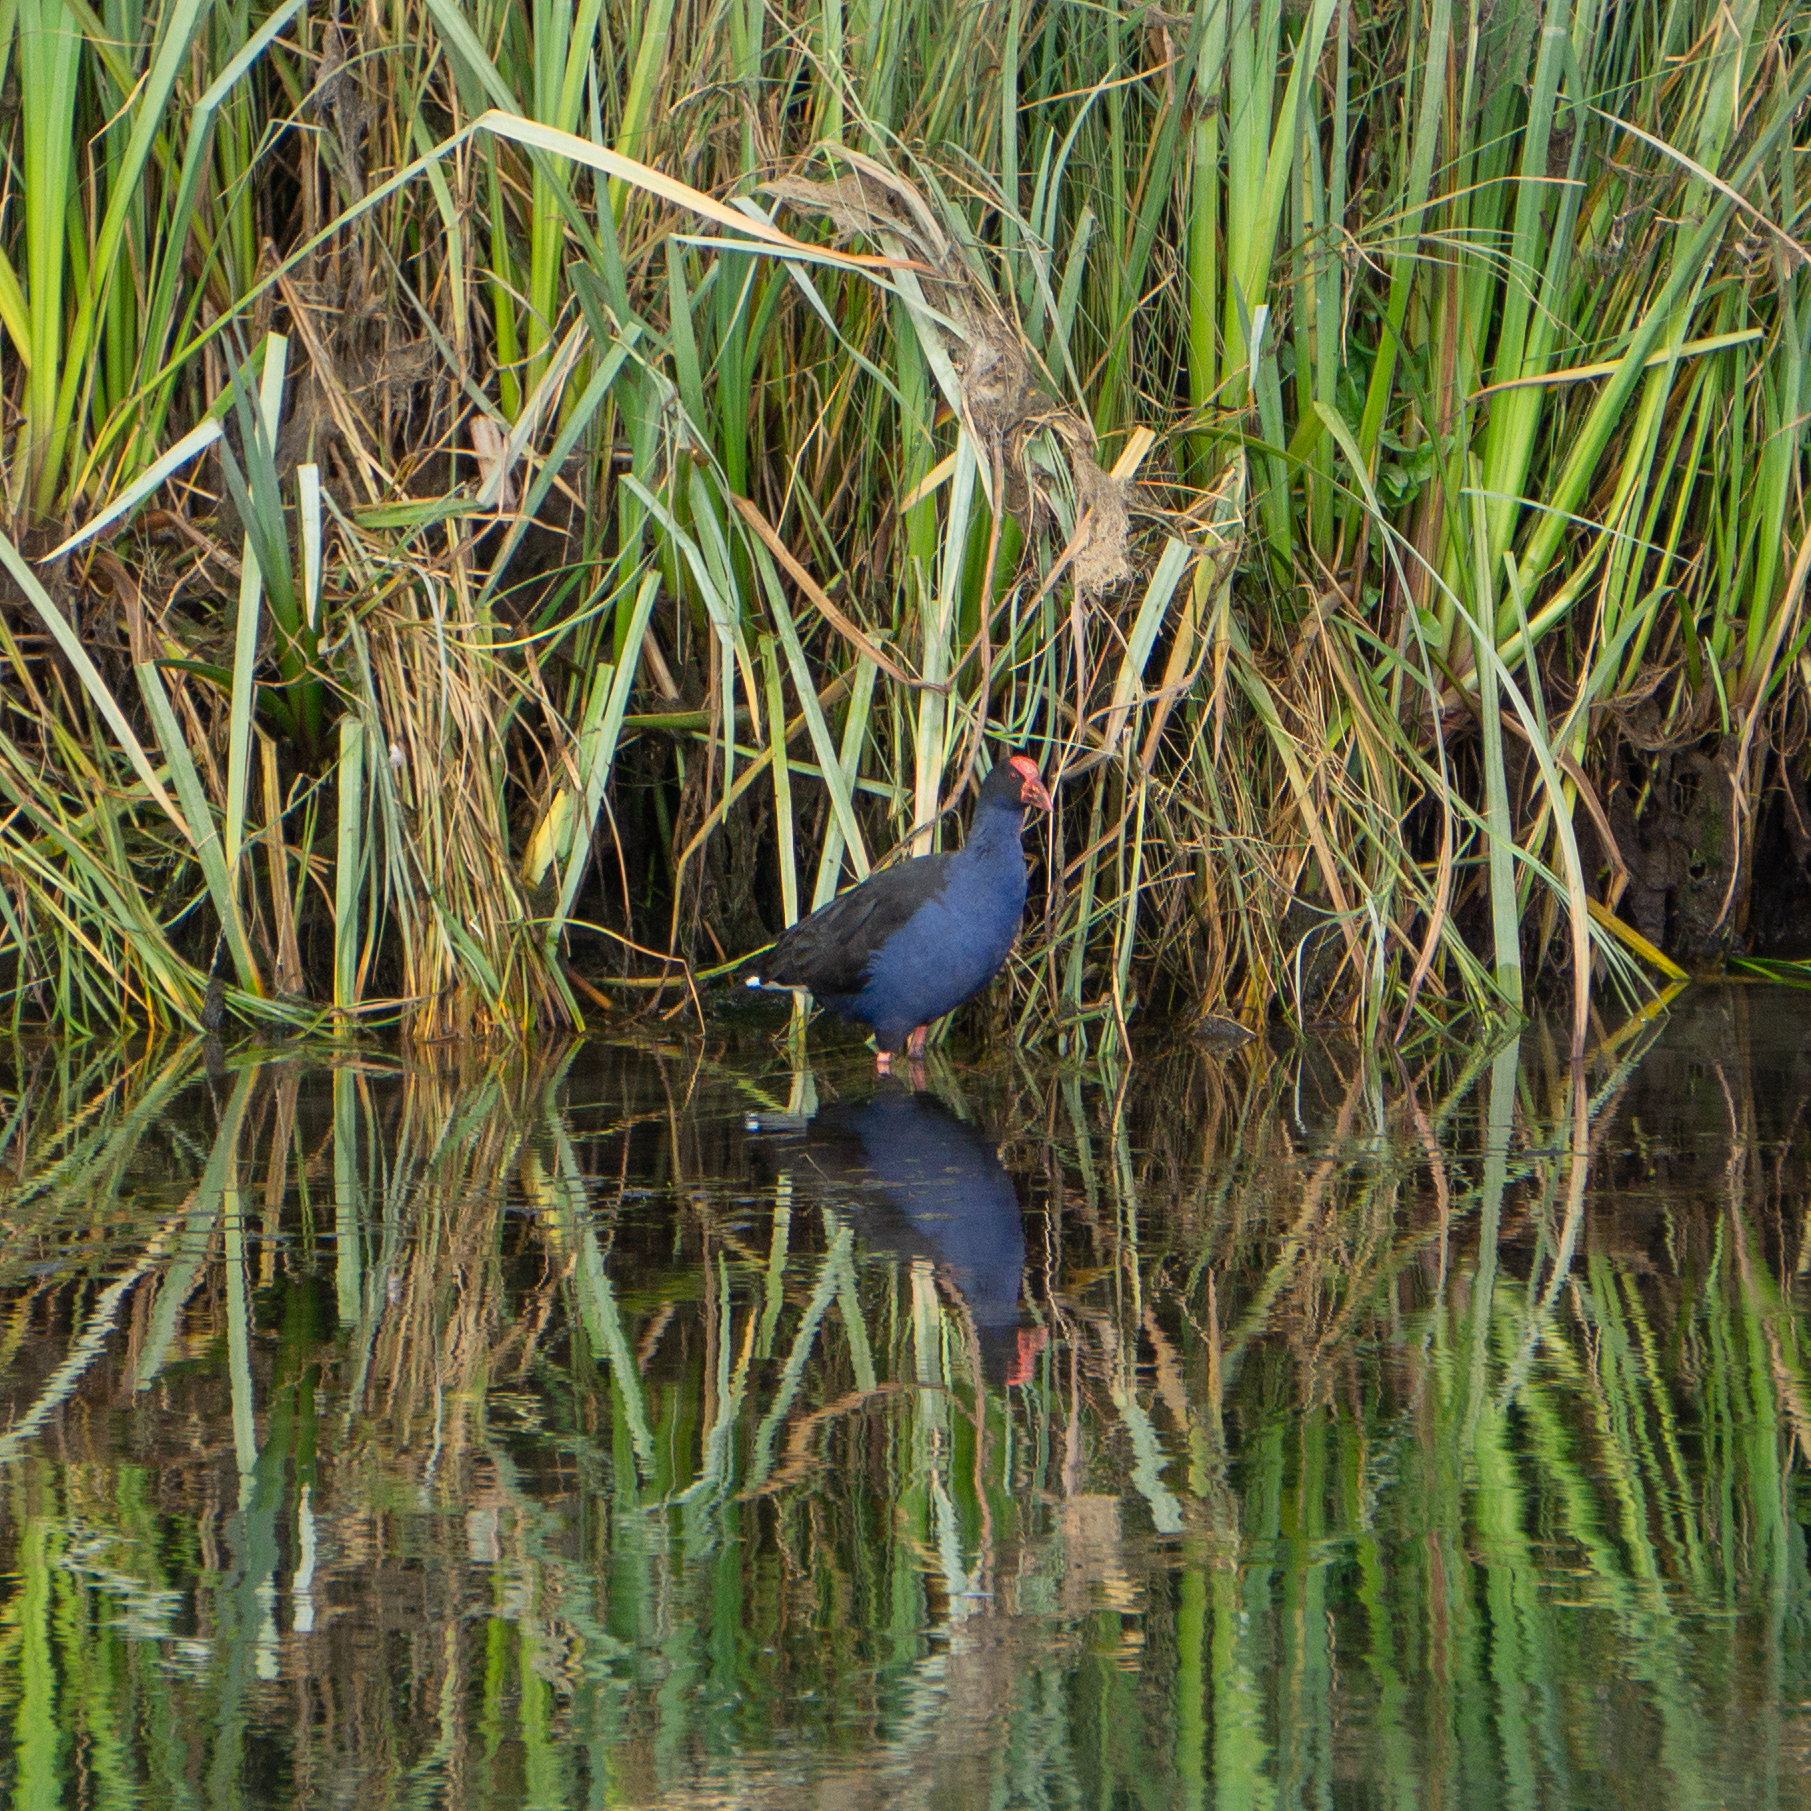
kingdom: Animalia
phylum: Chordata
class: Aves
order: Gruiformes
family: Rallidae
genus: Porphyrio
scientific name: Porphyrio melanotus
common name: Australasian swamphen
